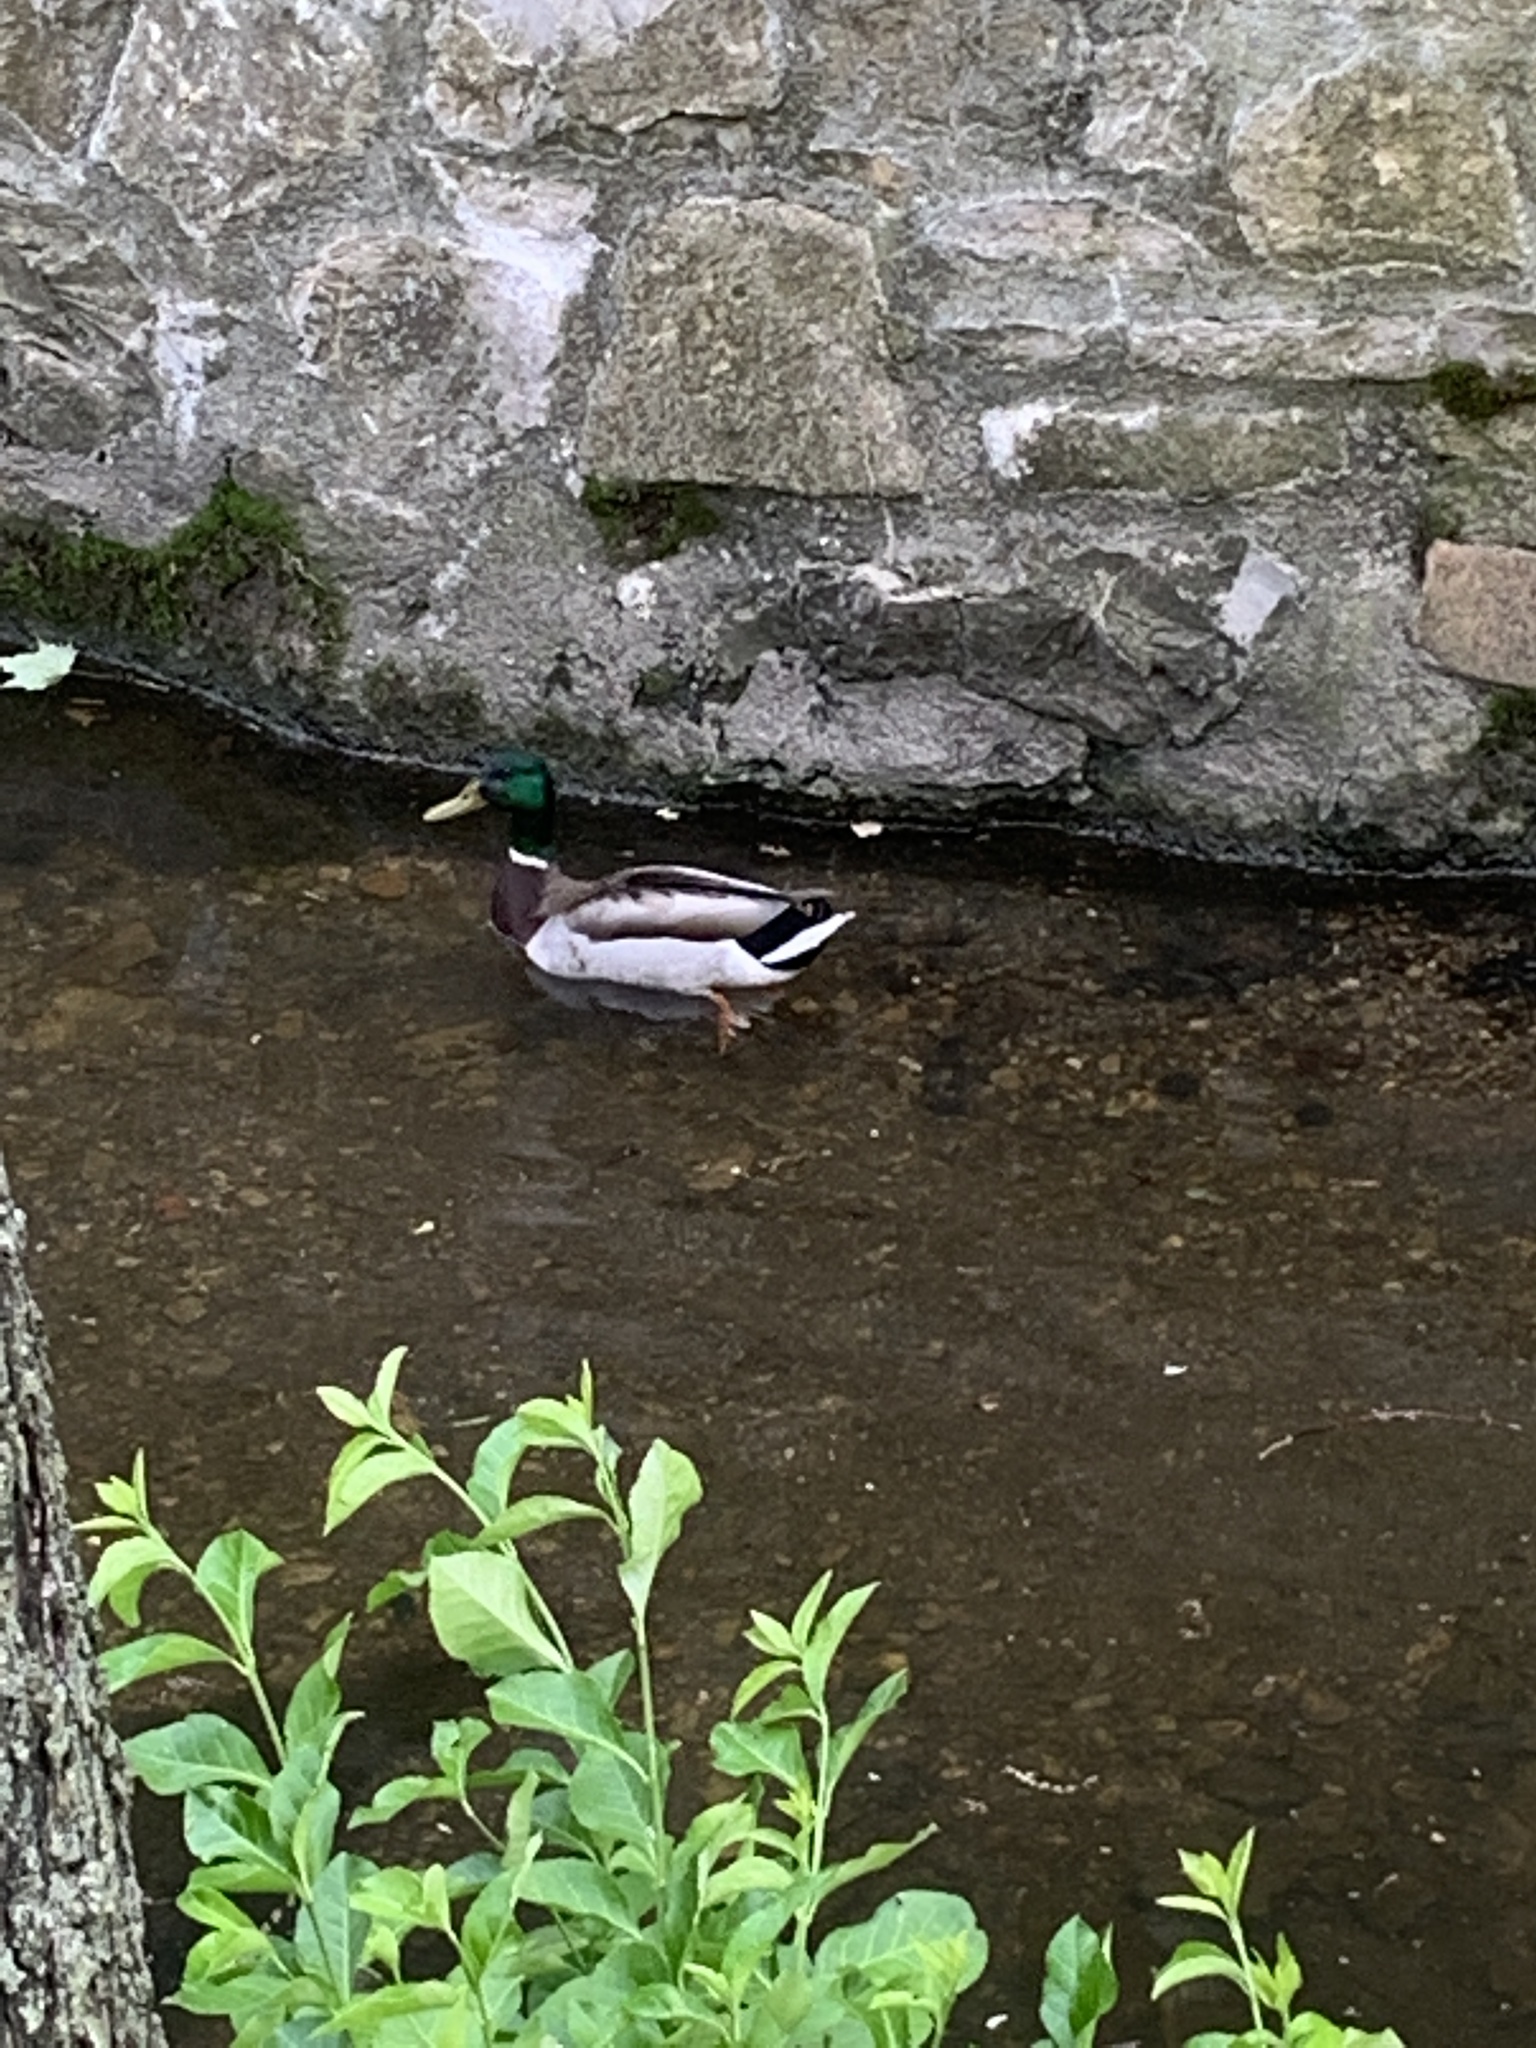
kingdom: Animalia
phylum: Chordata
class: Aves
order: Anseriformes
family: Anatidae
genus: Anas
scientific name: Anas platyrhynchos
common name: Mallard
